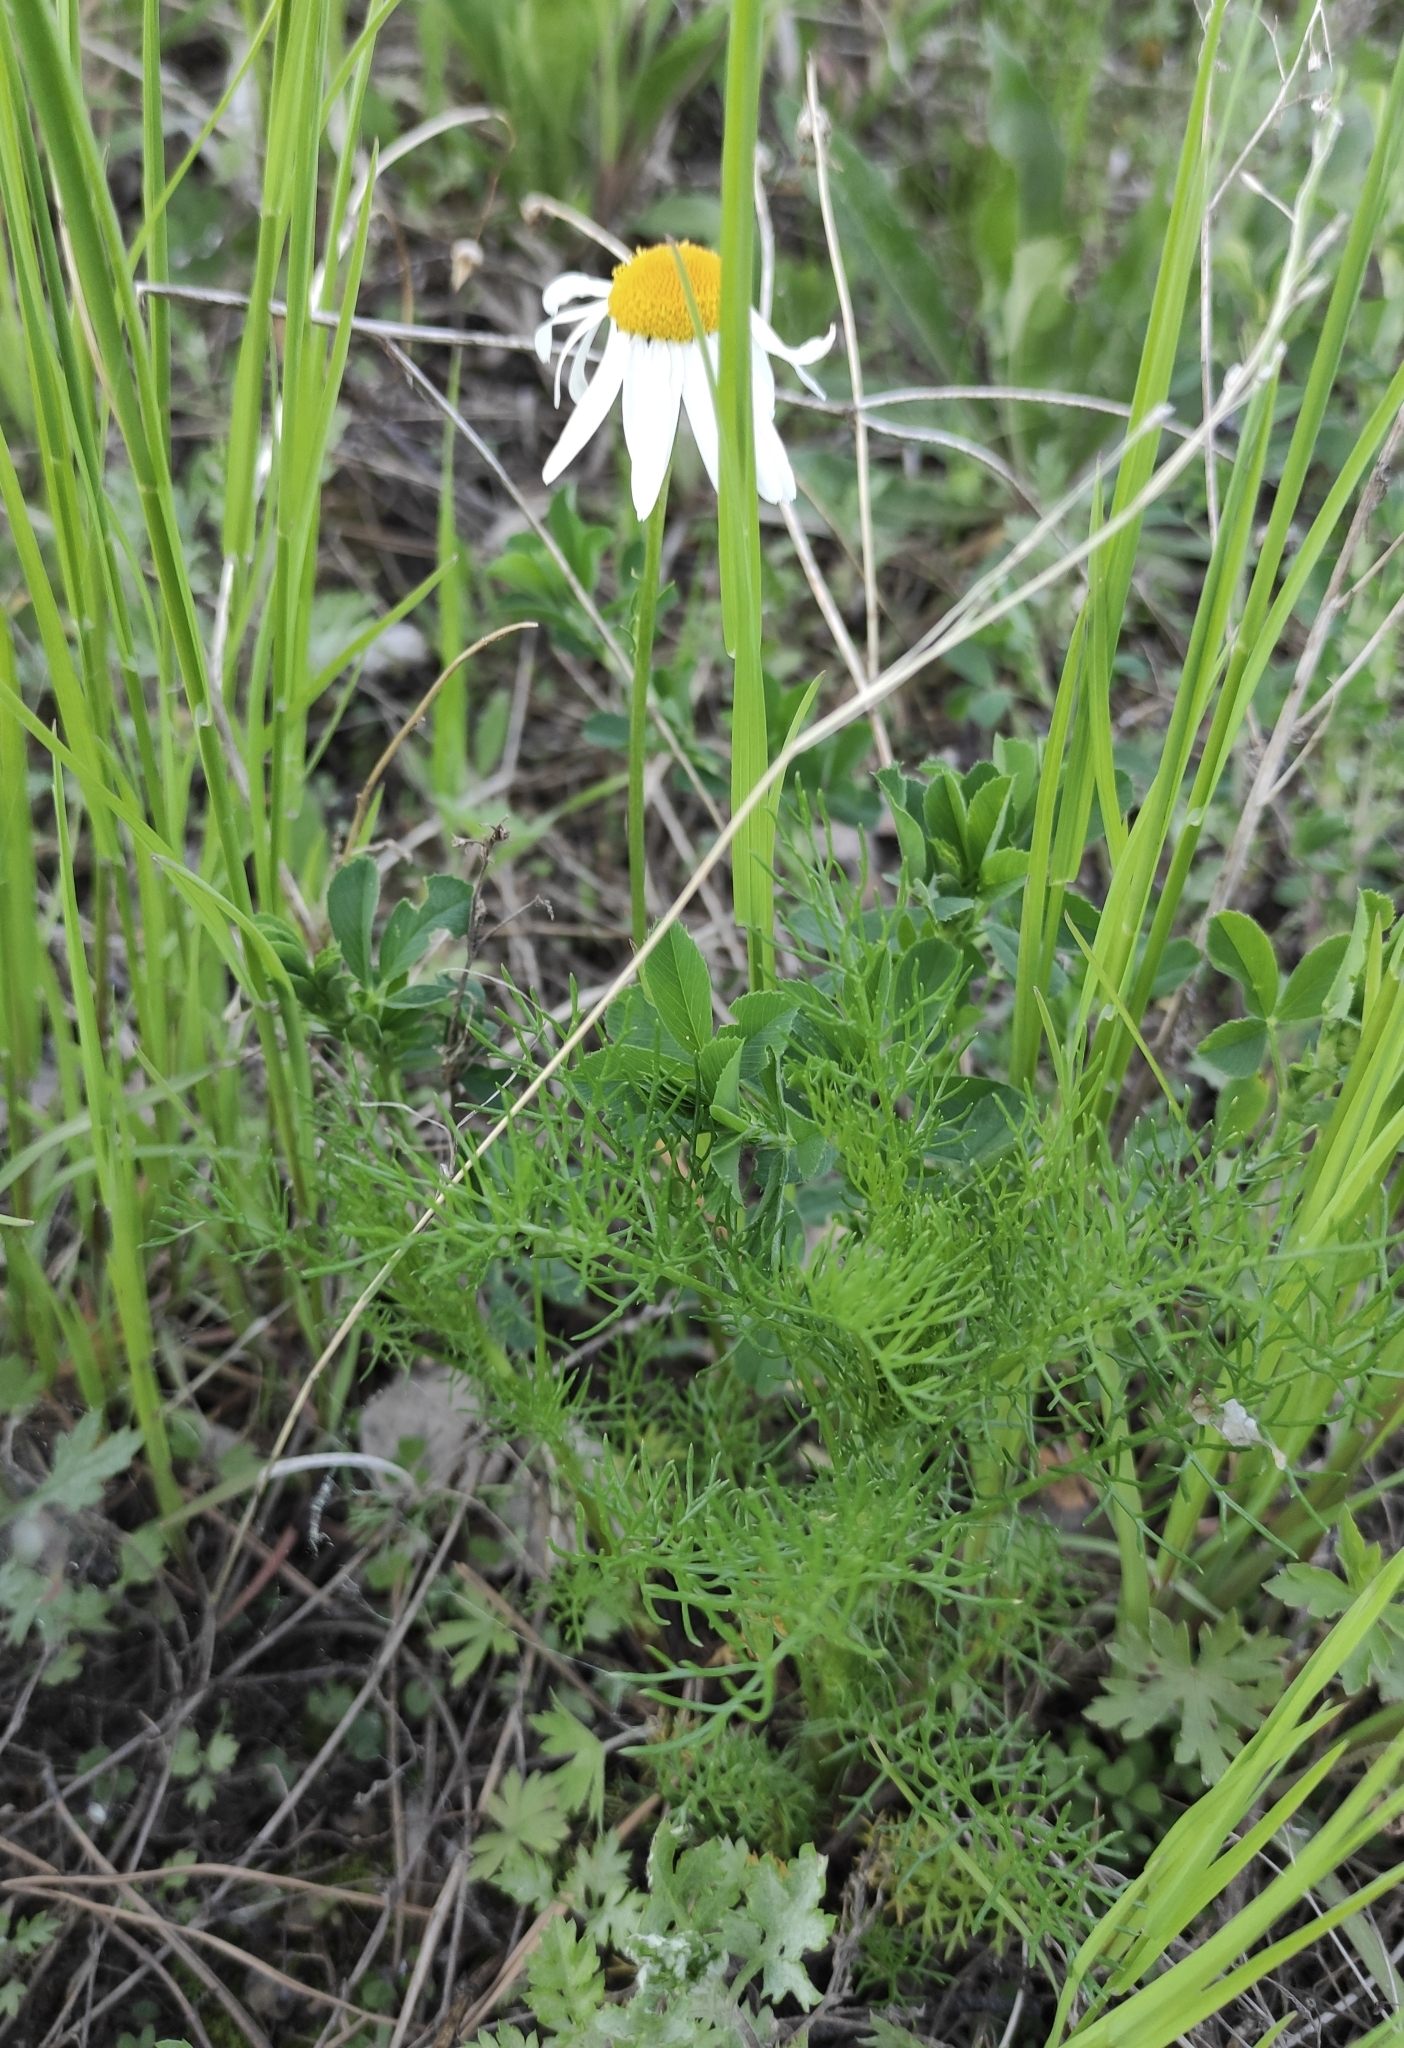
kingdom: Plantae
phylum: Tracheophyta
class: Magnoliopsida
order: Asterales
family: Asteraceae
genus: Tripleurospermum
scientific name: Tripleurospermum inodorum
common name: Scentless mayweed
